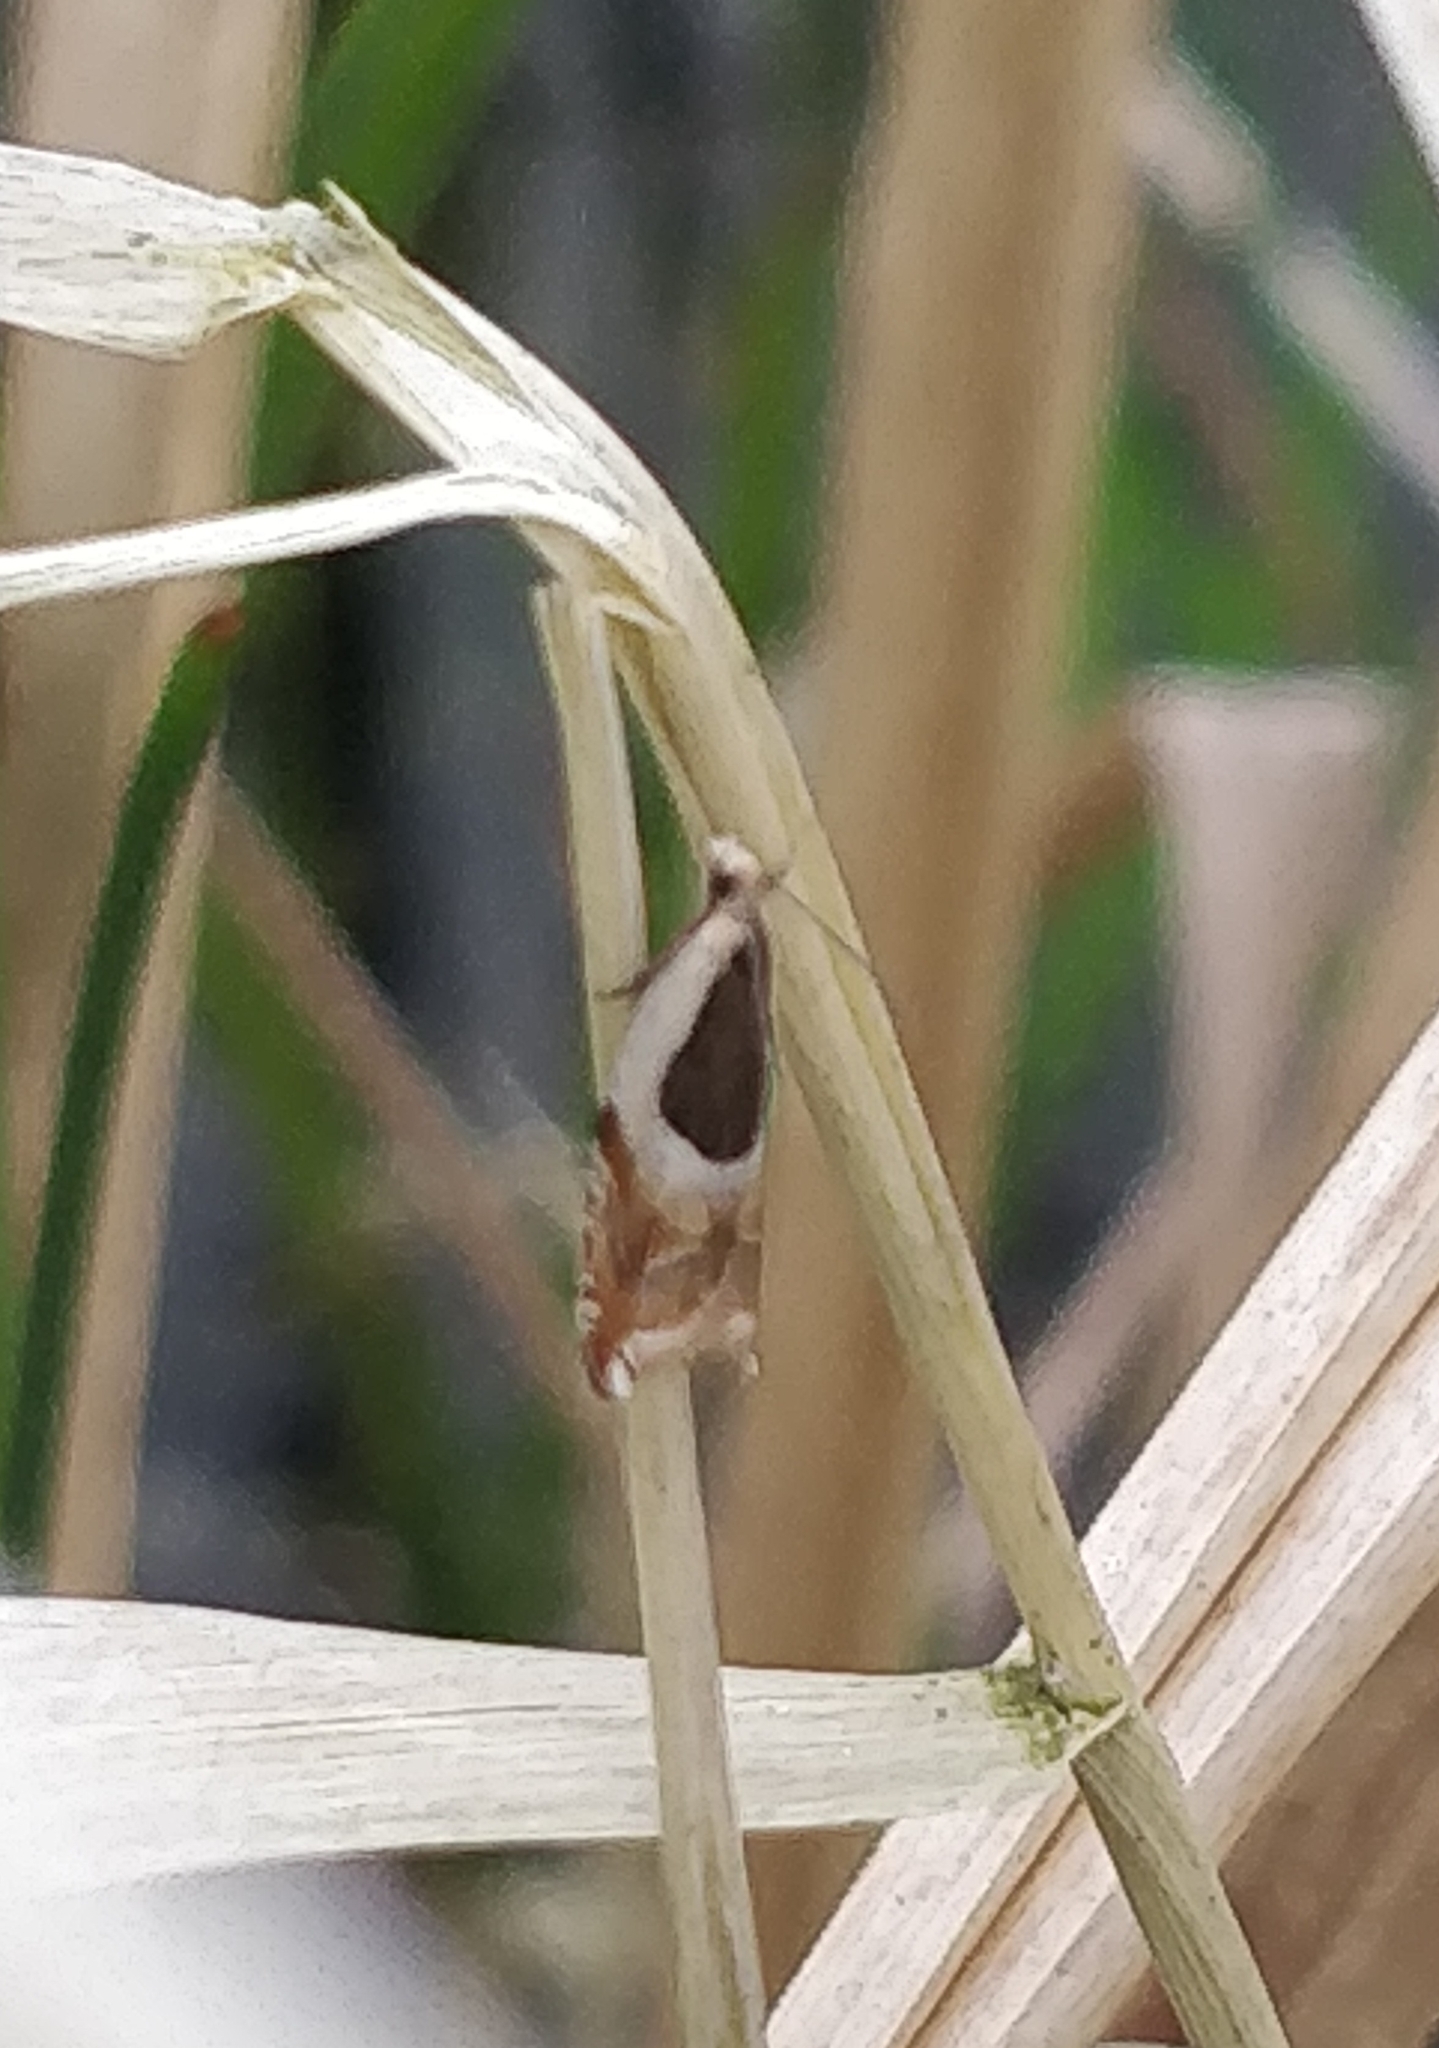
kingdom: Animalia
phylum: Arthropoda
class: Insecta
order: Lepidoptera
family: Tortricidae
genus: Ancylis
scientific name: Ancylis badiana
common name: Common roller
